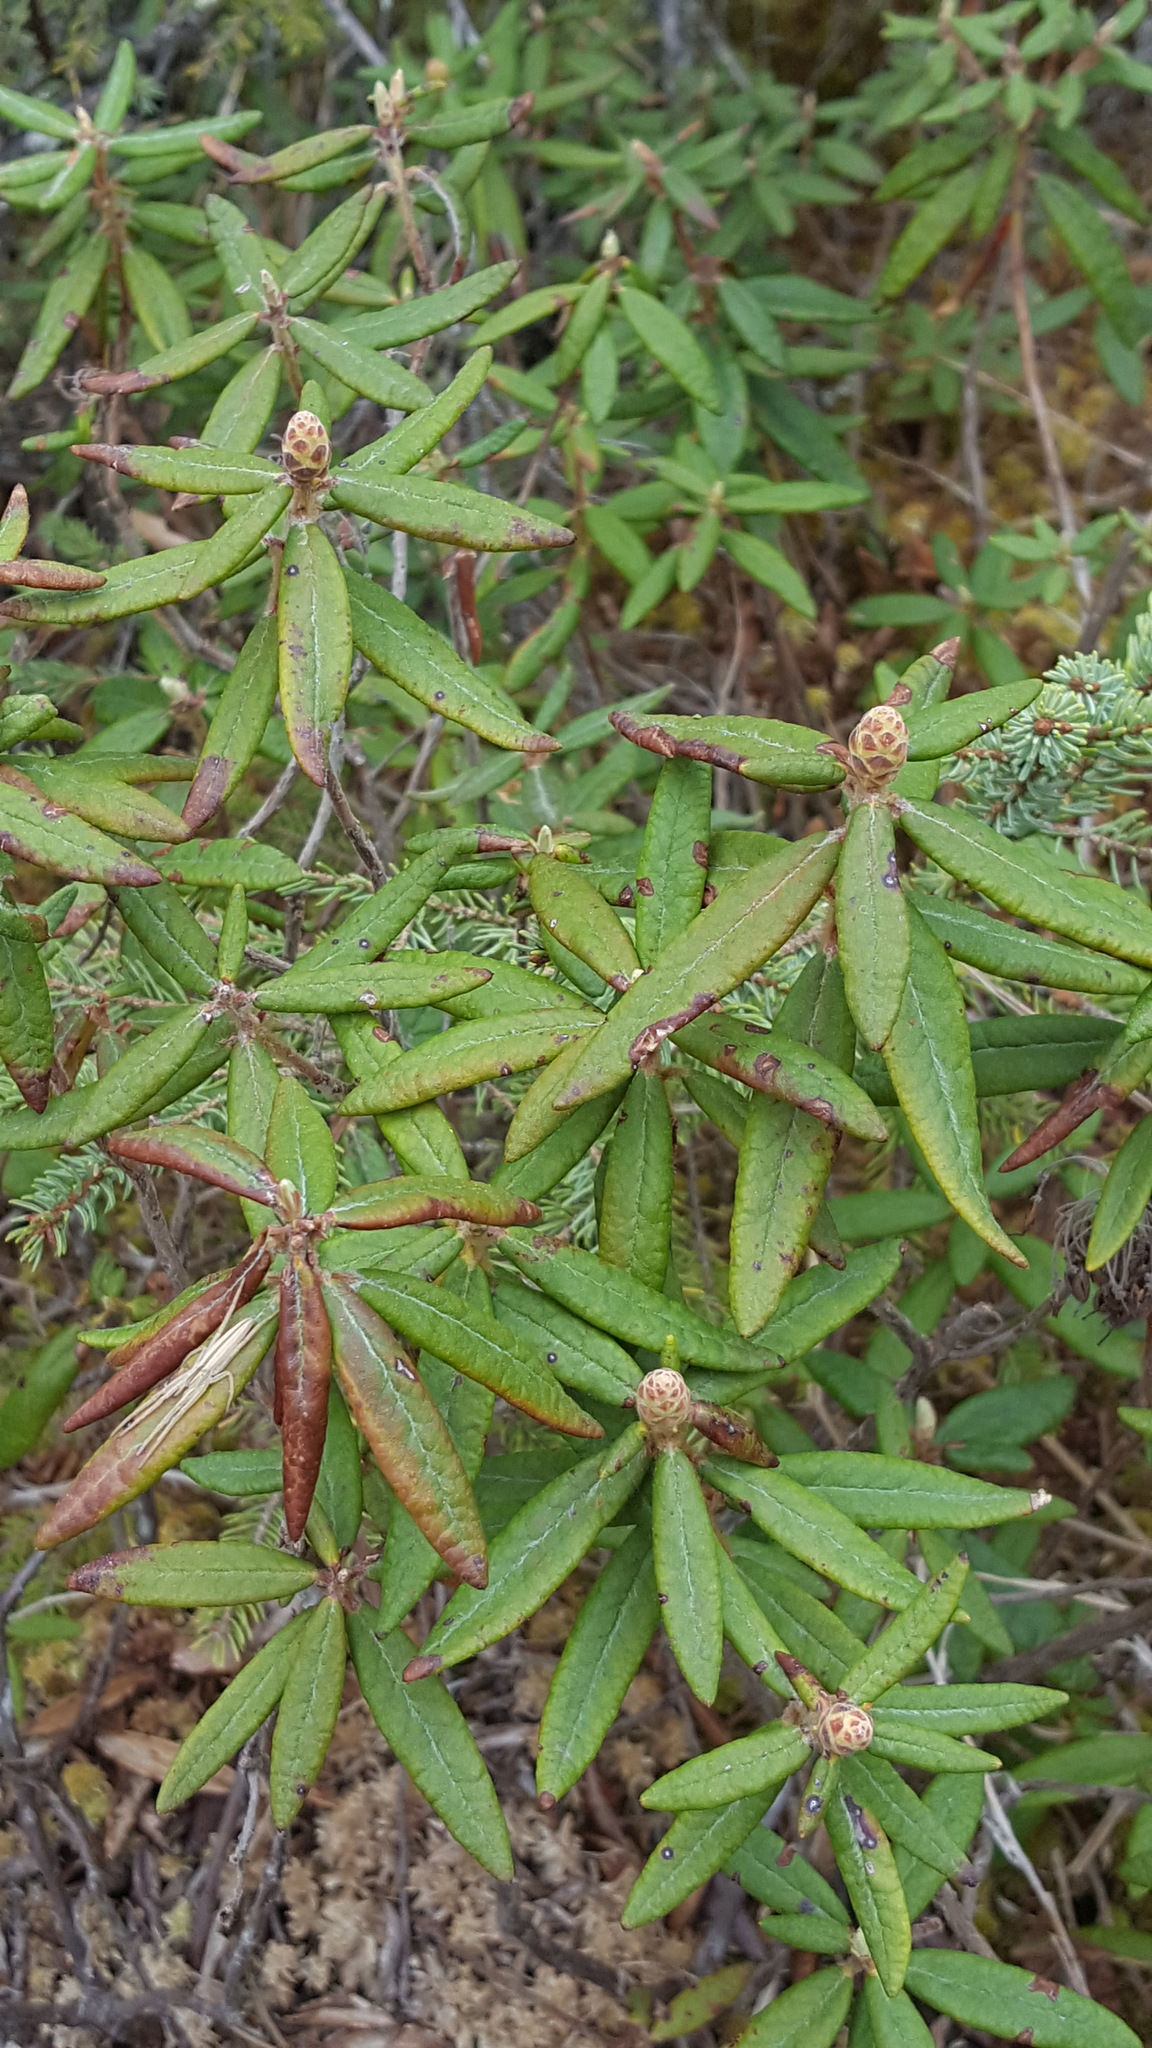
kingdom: Plantae
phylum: Tracheophyta
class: Magnoliopsida
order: Ericales
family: Ericaceae
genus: Rhododendron
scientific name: Rhododendron groenlandicum
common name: Bog labrador tea
